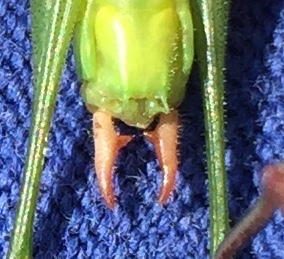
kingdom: Animalia
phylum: Arthropoda
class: Insecta
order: Orthoptera
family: Tettigoniidae
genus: Conocephalus
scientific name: Conocephalus strictus
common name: Straight-lanced katydid
